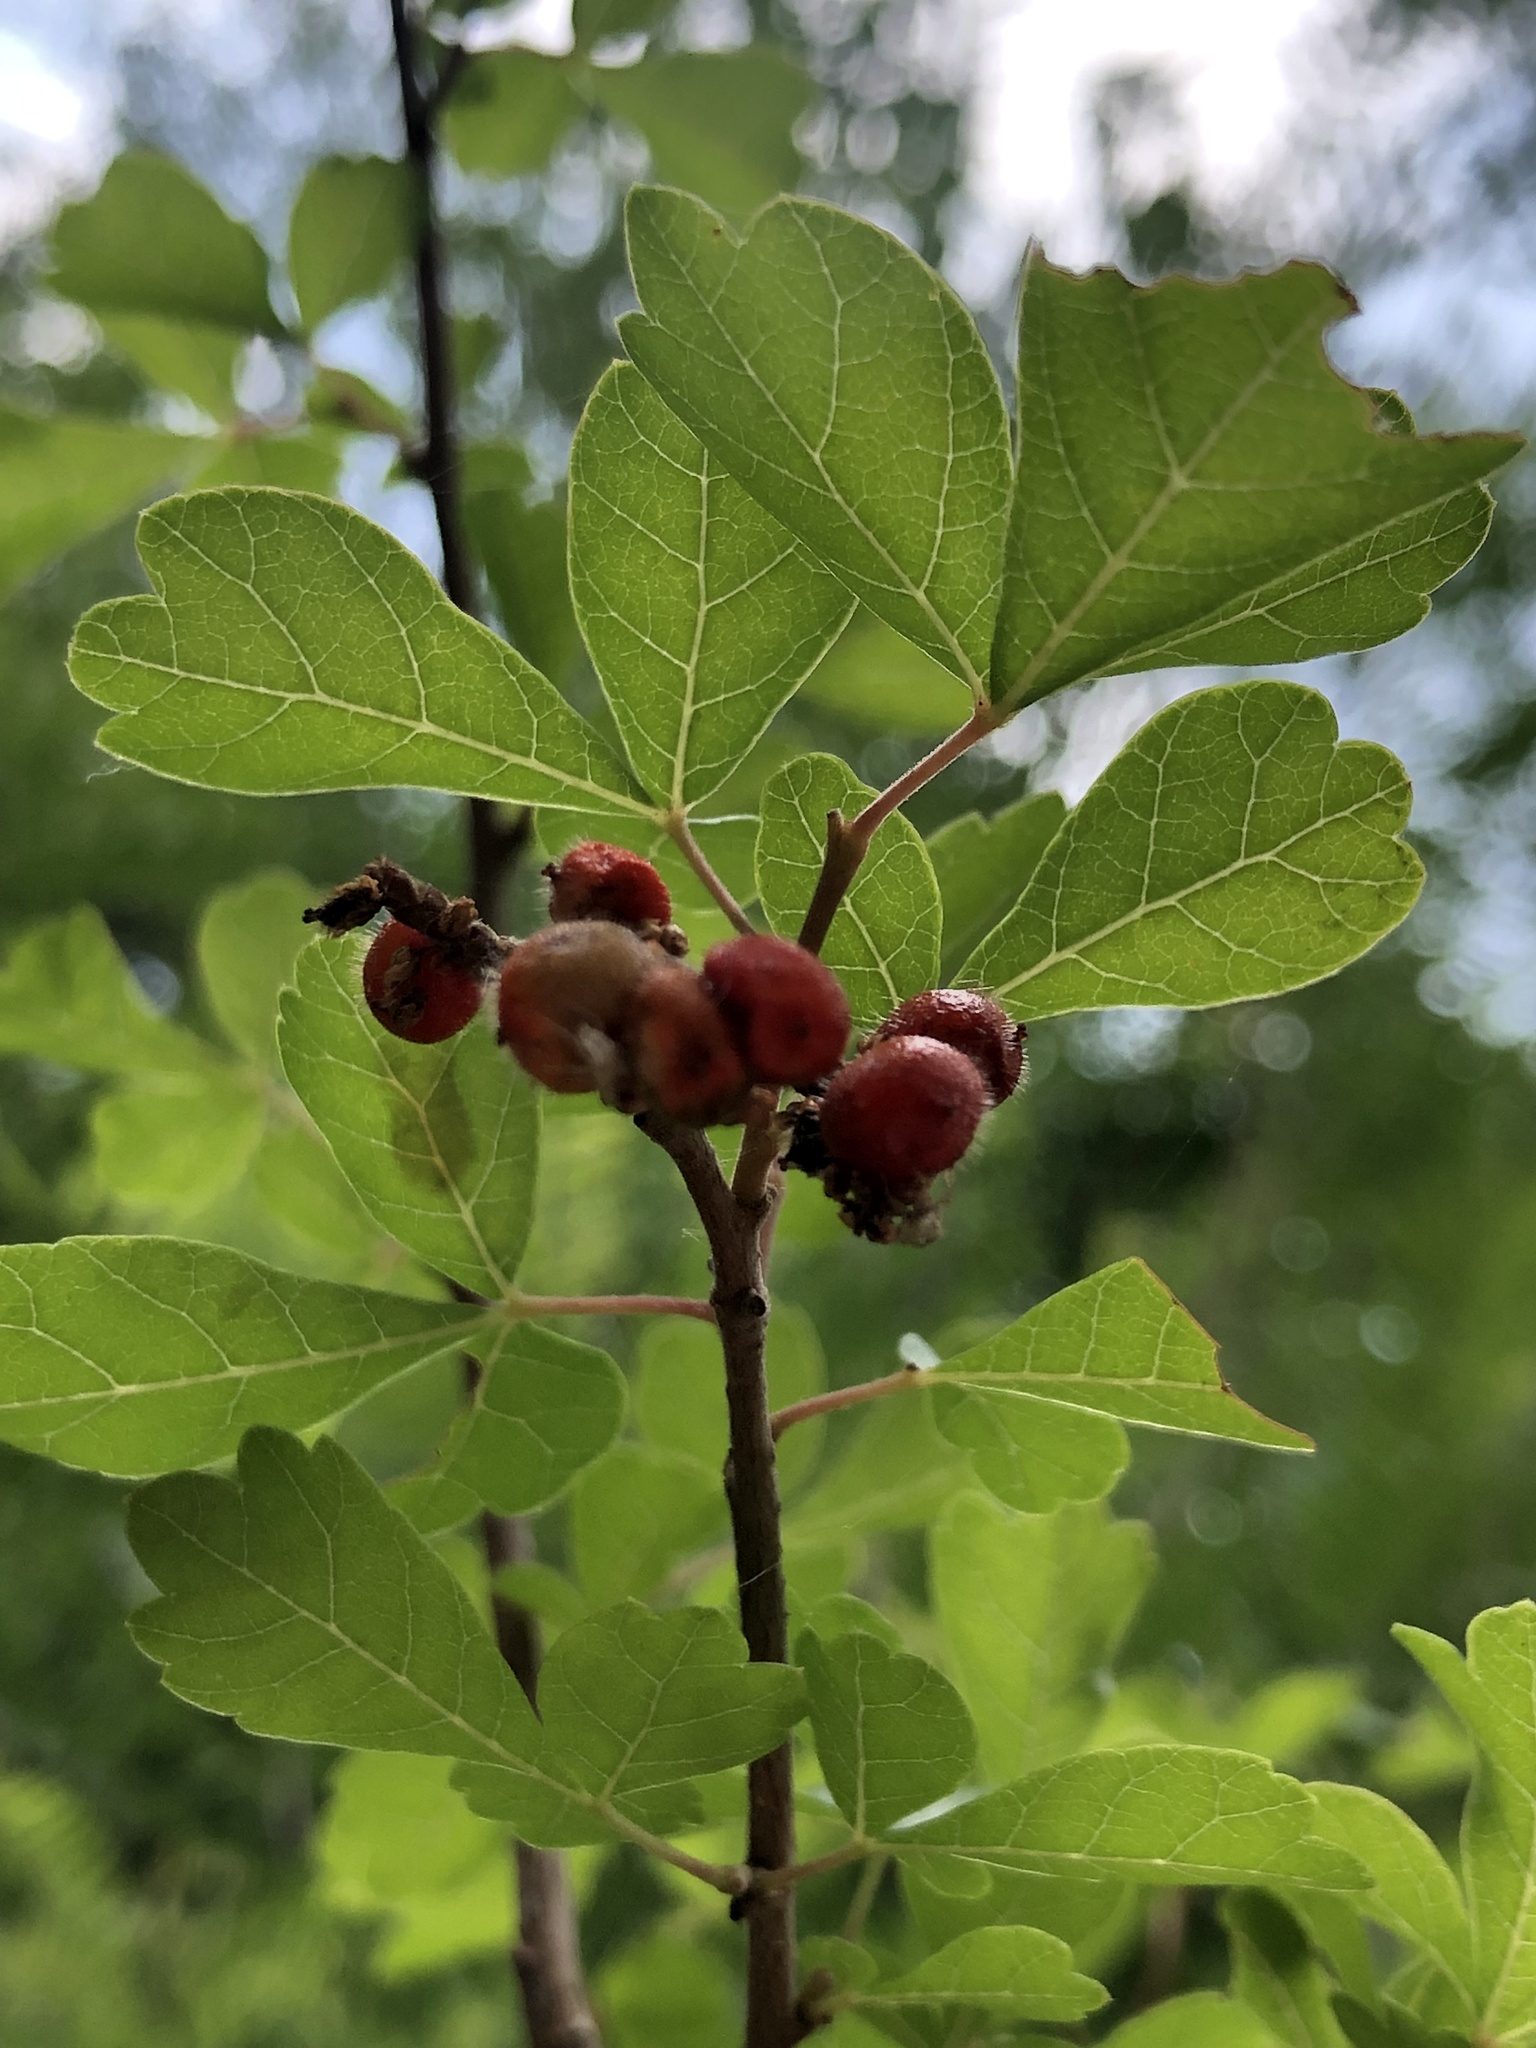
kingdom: Plantae
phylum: Tracheophyta
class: Magnoliopsida
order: Sapindales
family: Anacardiaceae
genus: Rhus
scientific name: Rhus aromatica
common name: Aromatic sumac
